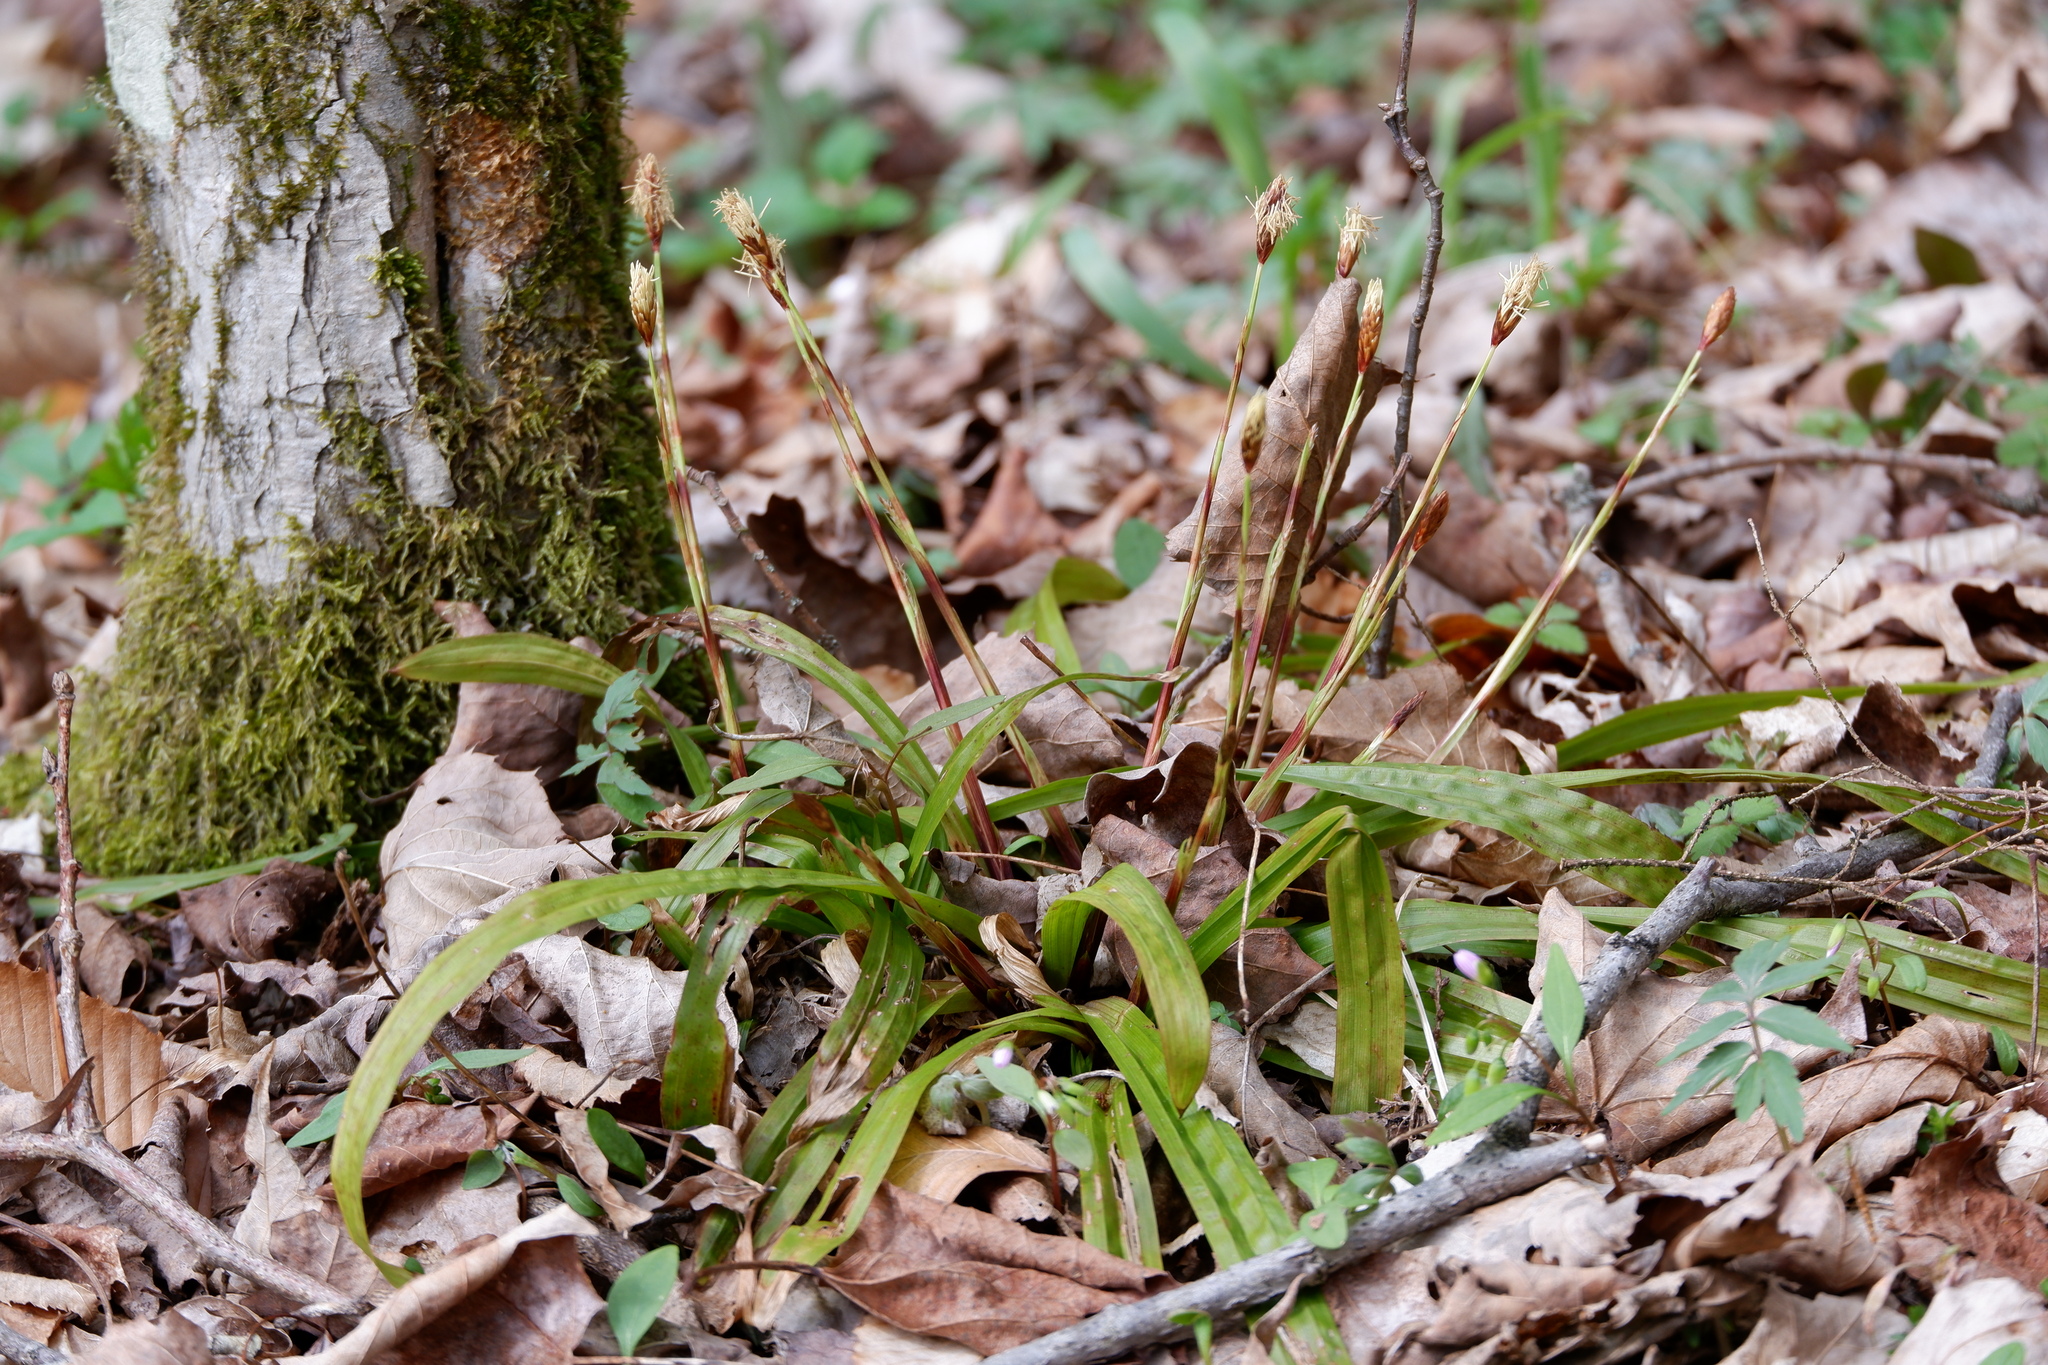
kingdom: Plantae
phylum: Tracheophyta
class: Liliopsida
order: Poales
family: Cyperaceae
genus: Carex
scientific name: Carex plantaginea
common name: Plantain-leaved sedge
